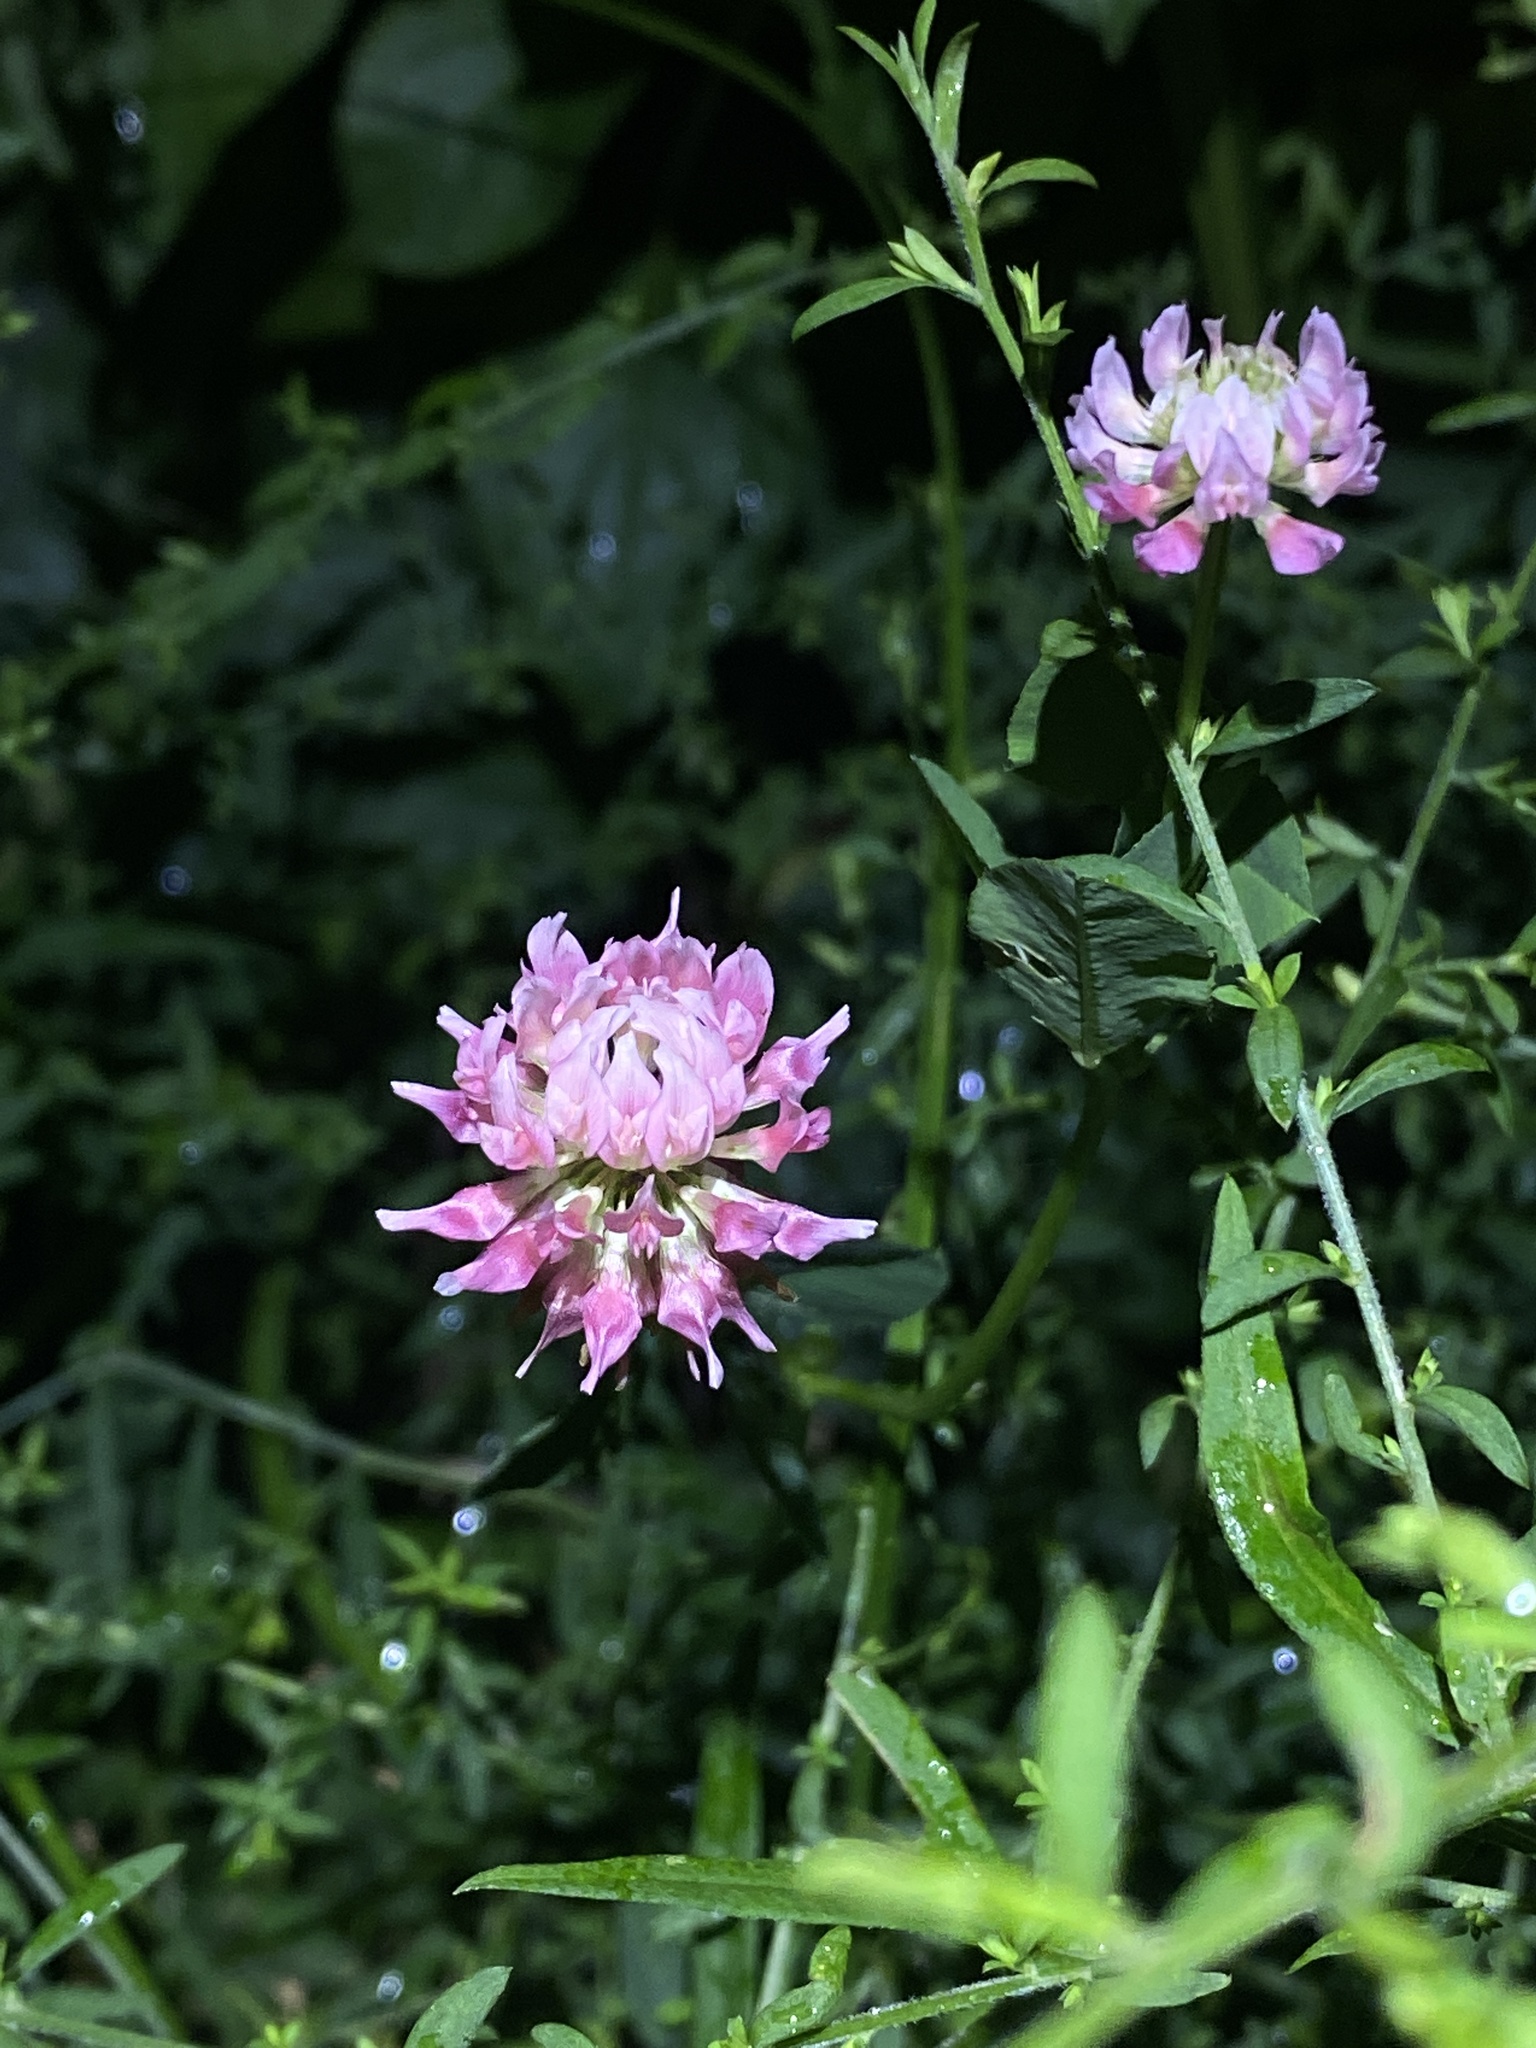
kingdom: Plantae
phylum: Tracheophyta
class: Magnoliopsida
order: Fabales
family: Fabaceae
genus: Trifolium
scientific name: Trifolium hybridum
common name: Alsike clover
